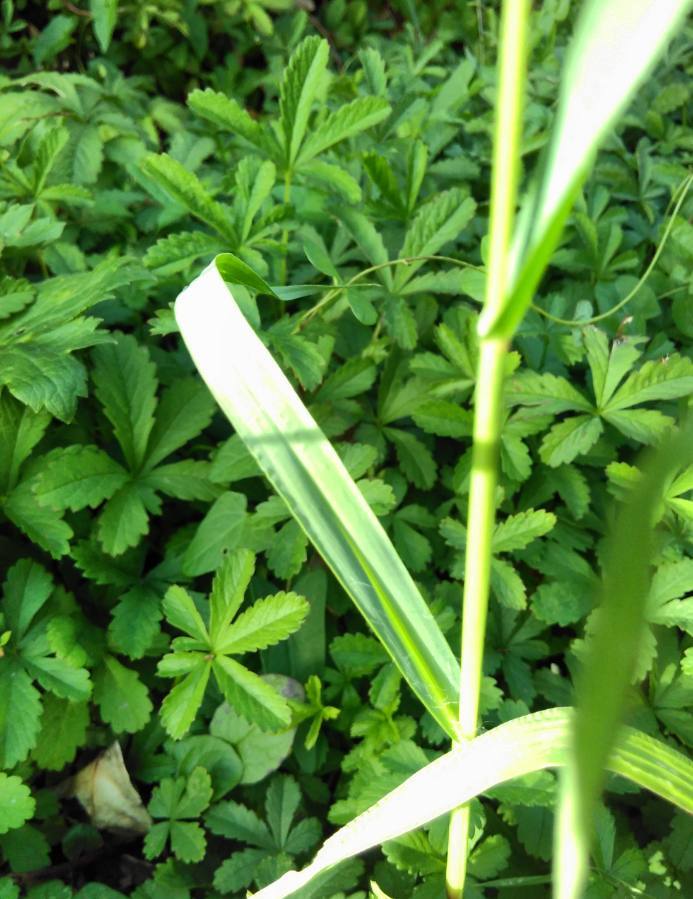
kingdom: Plantae
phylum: Tracheophyta
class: Liliopsida
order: Poales
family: Poaceae
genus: Setaria
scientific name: Setaria pumila
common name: Yellow bristle-grass
